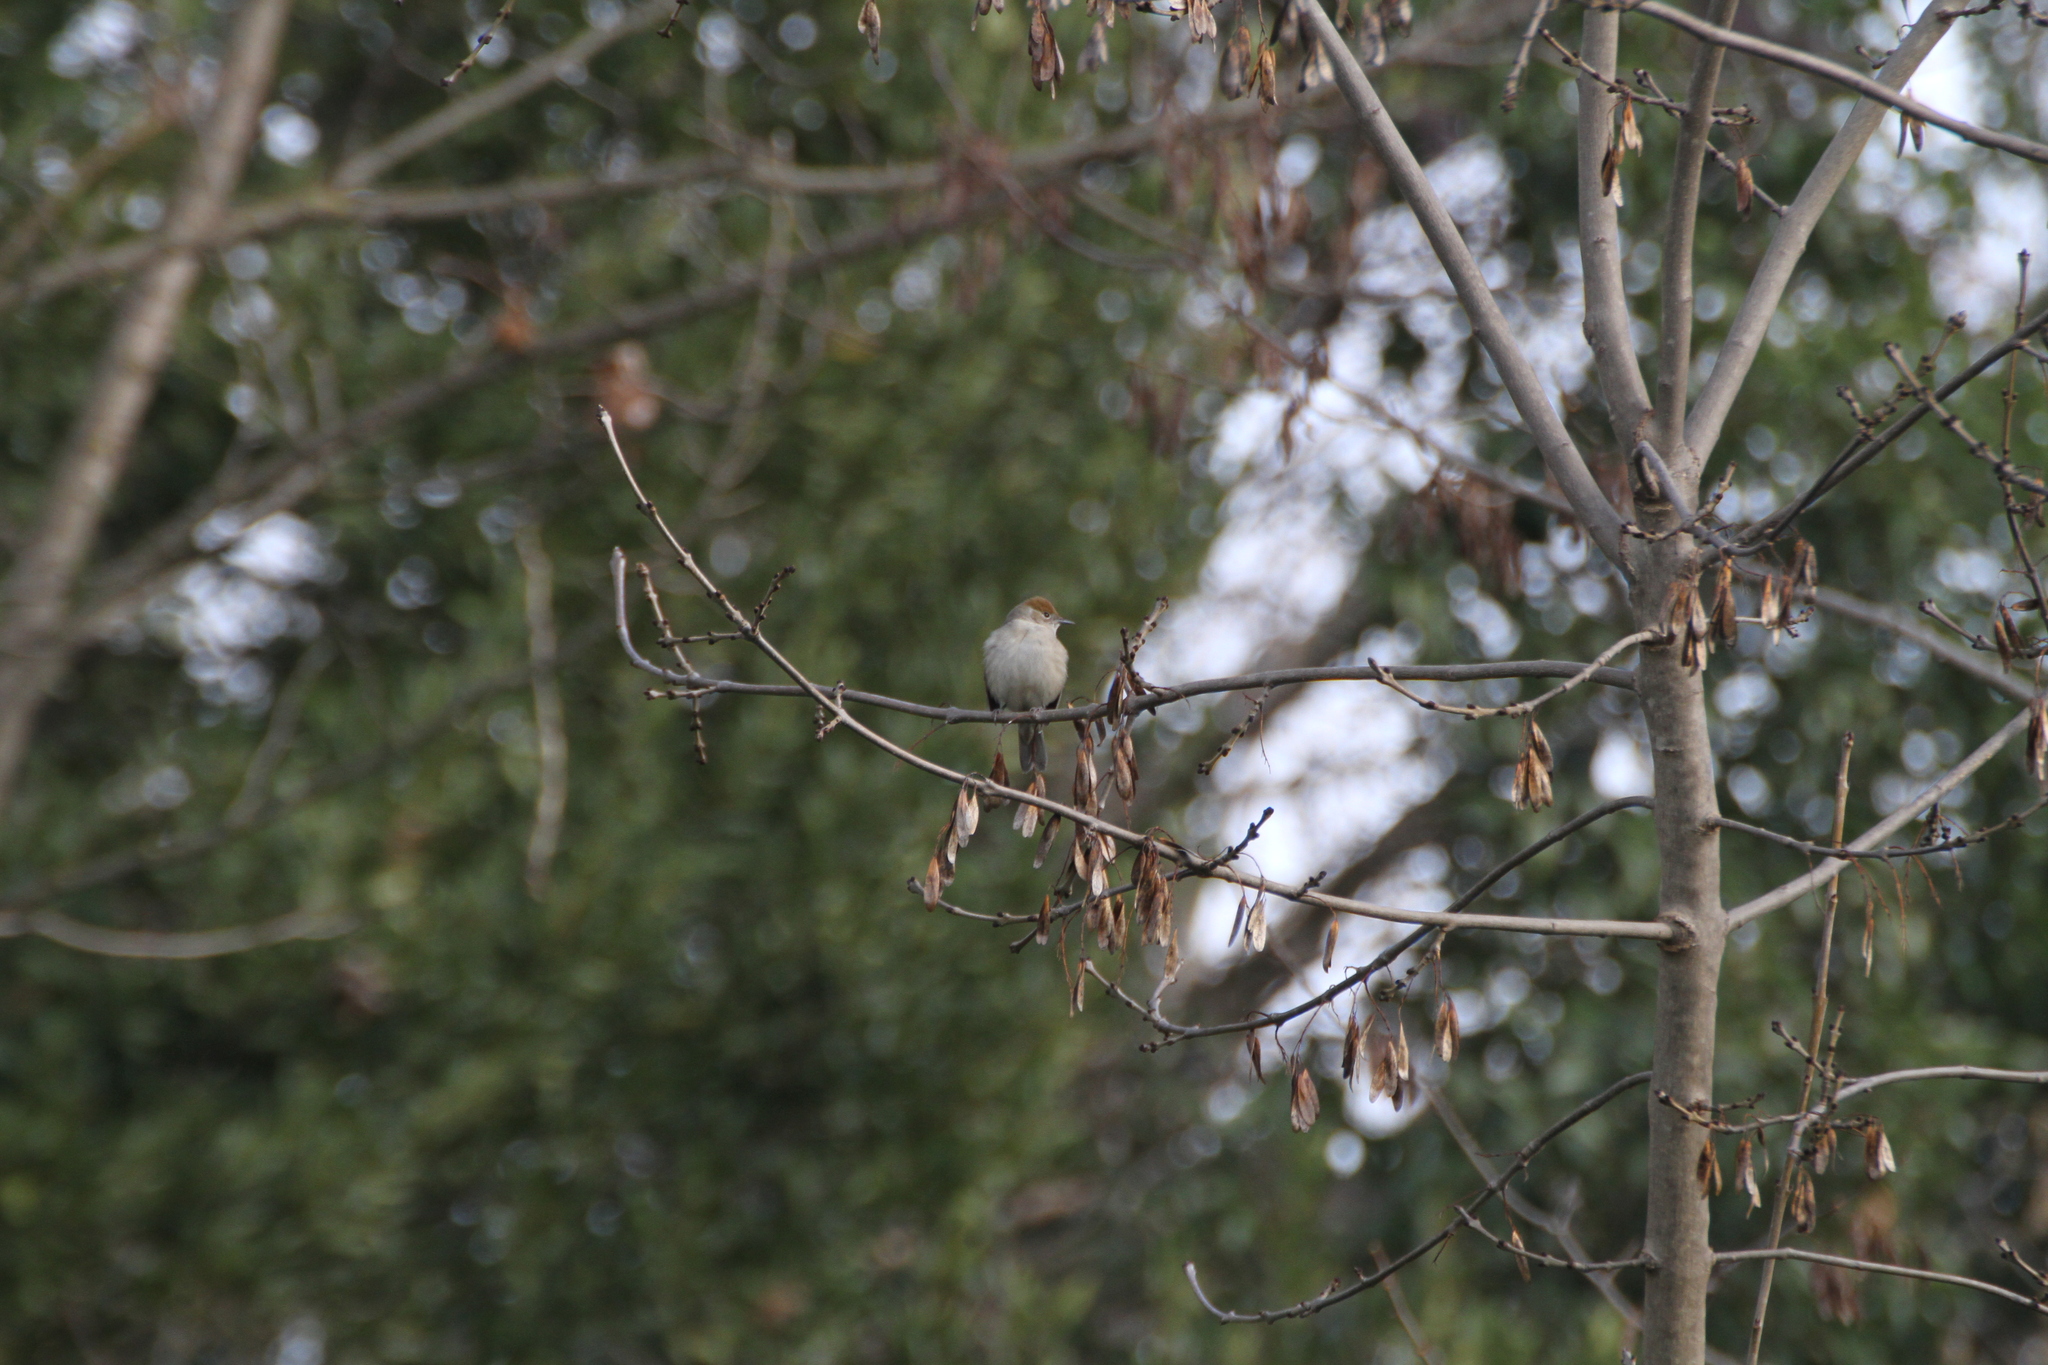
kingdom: Animalia
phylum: Chordata
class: Aves
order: Passeriformes
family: Sylviidae
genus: Sylvia
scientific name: Sylvia atricapilla
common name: Eurasian blackcap
